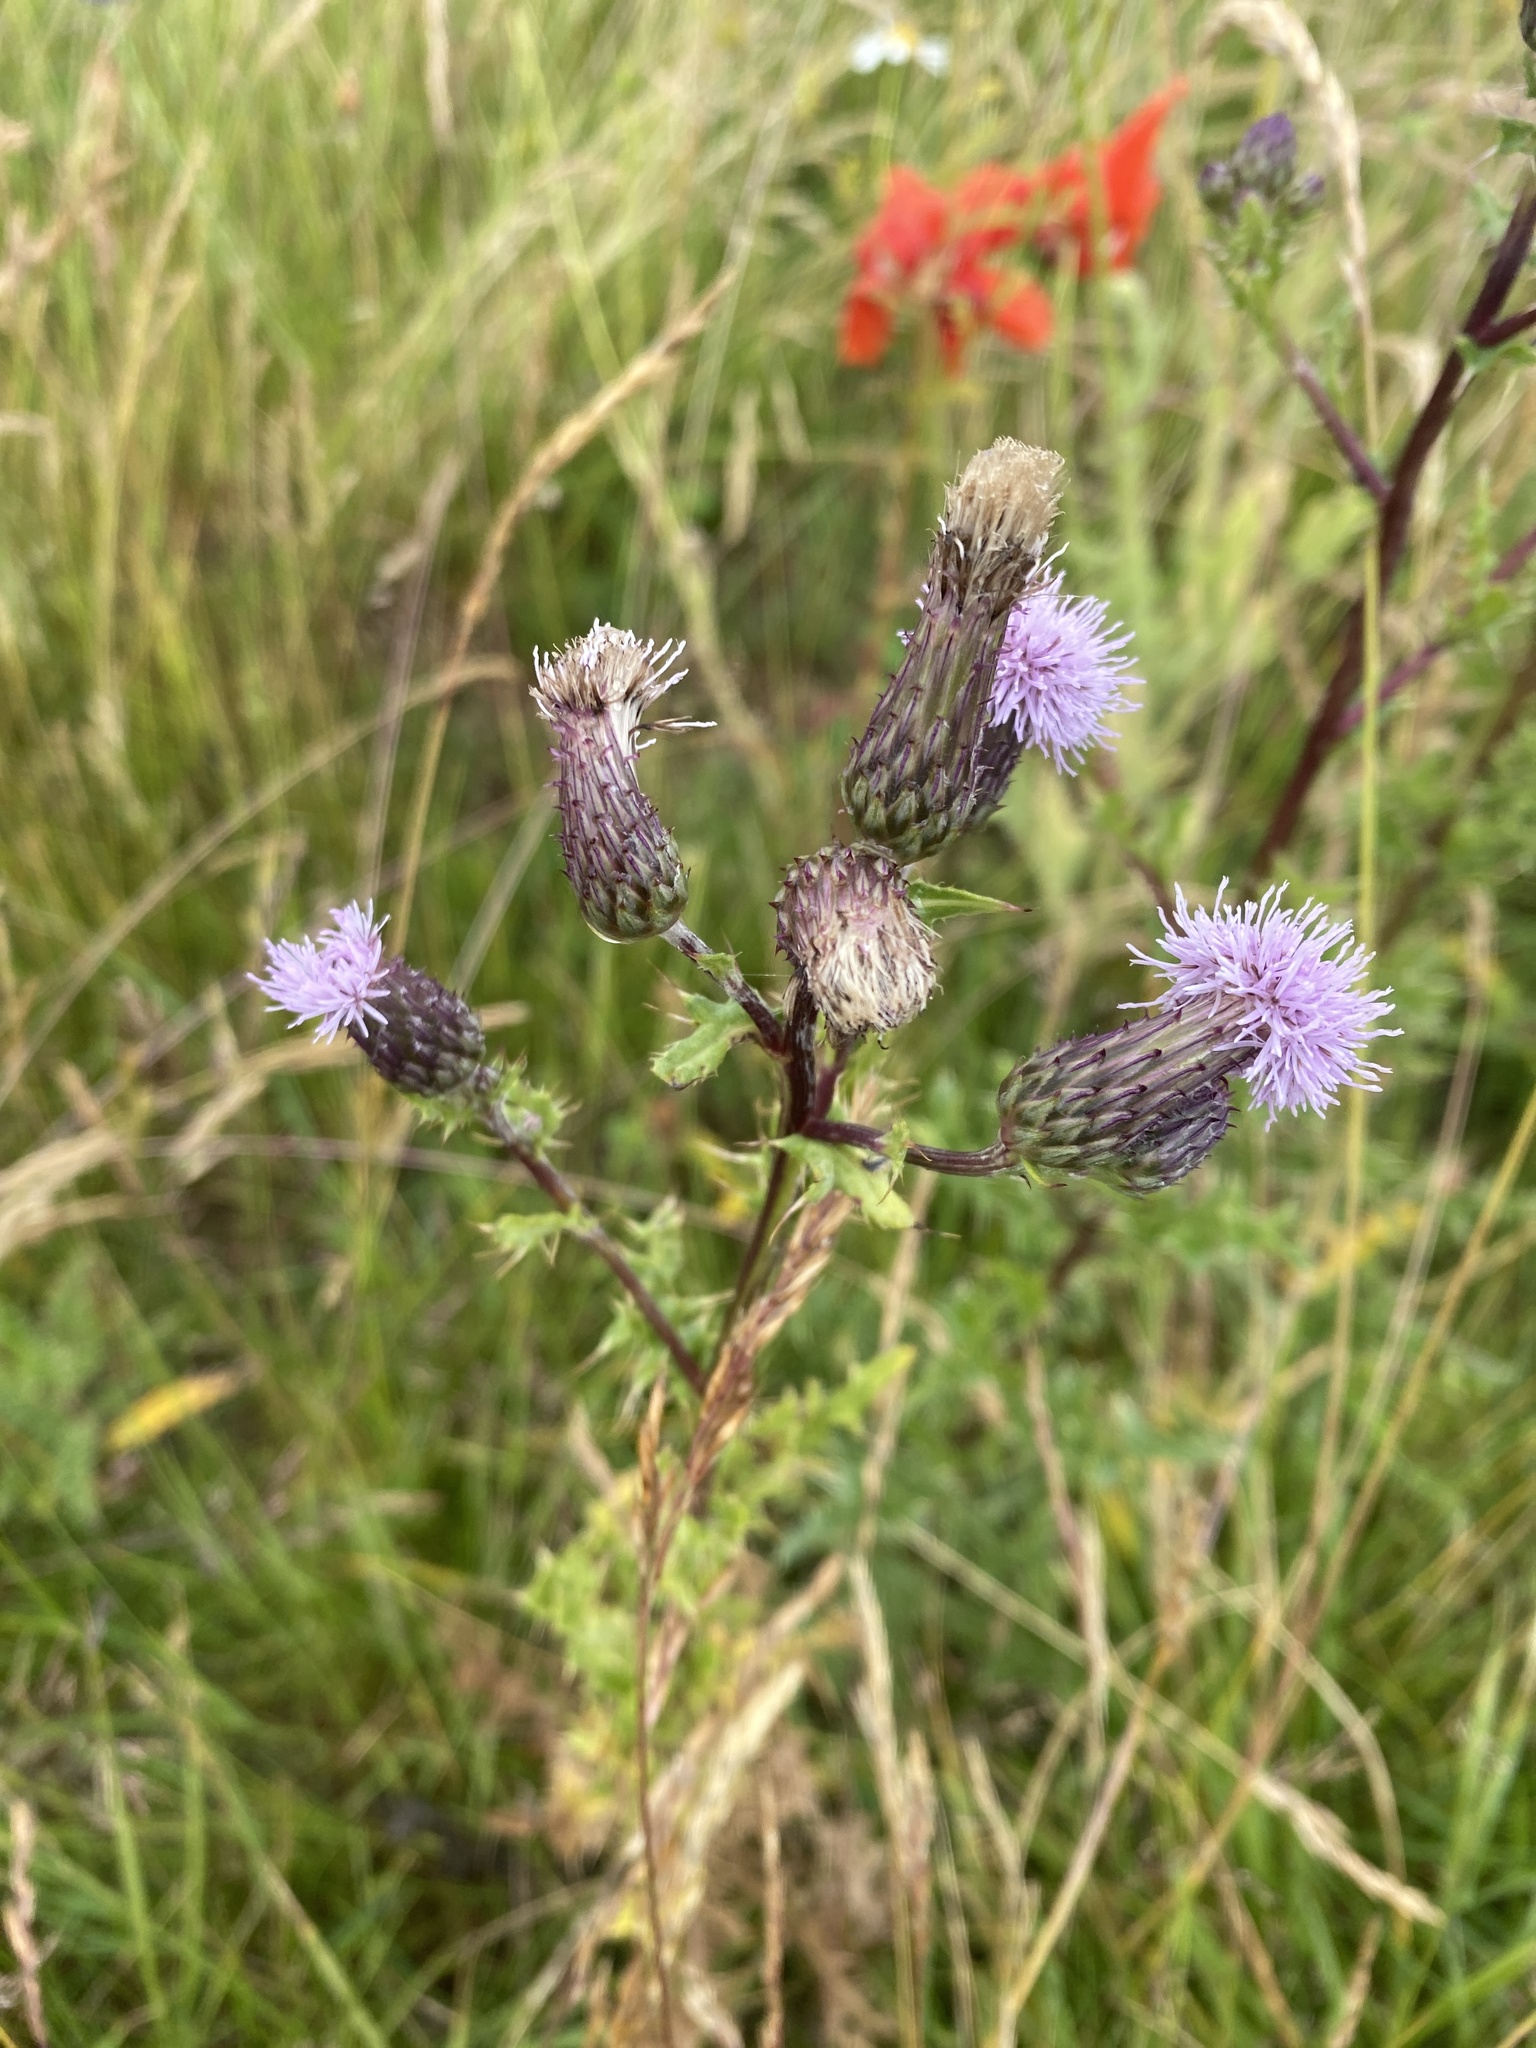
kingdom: Plantae
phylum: Tracheophyta
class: Magnoliopsida
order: Asterales
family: Asteraceae
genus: Cirsium
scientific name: Cirsium arvense
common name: Creeping thistle
